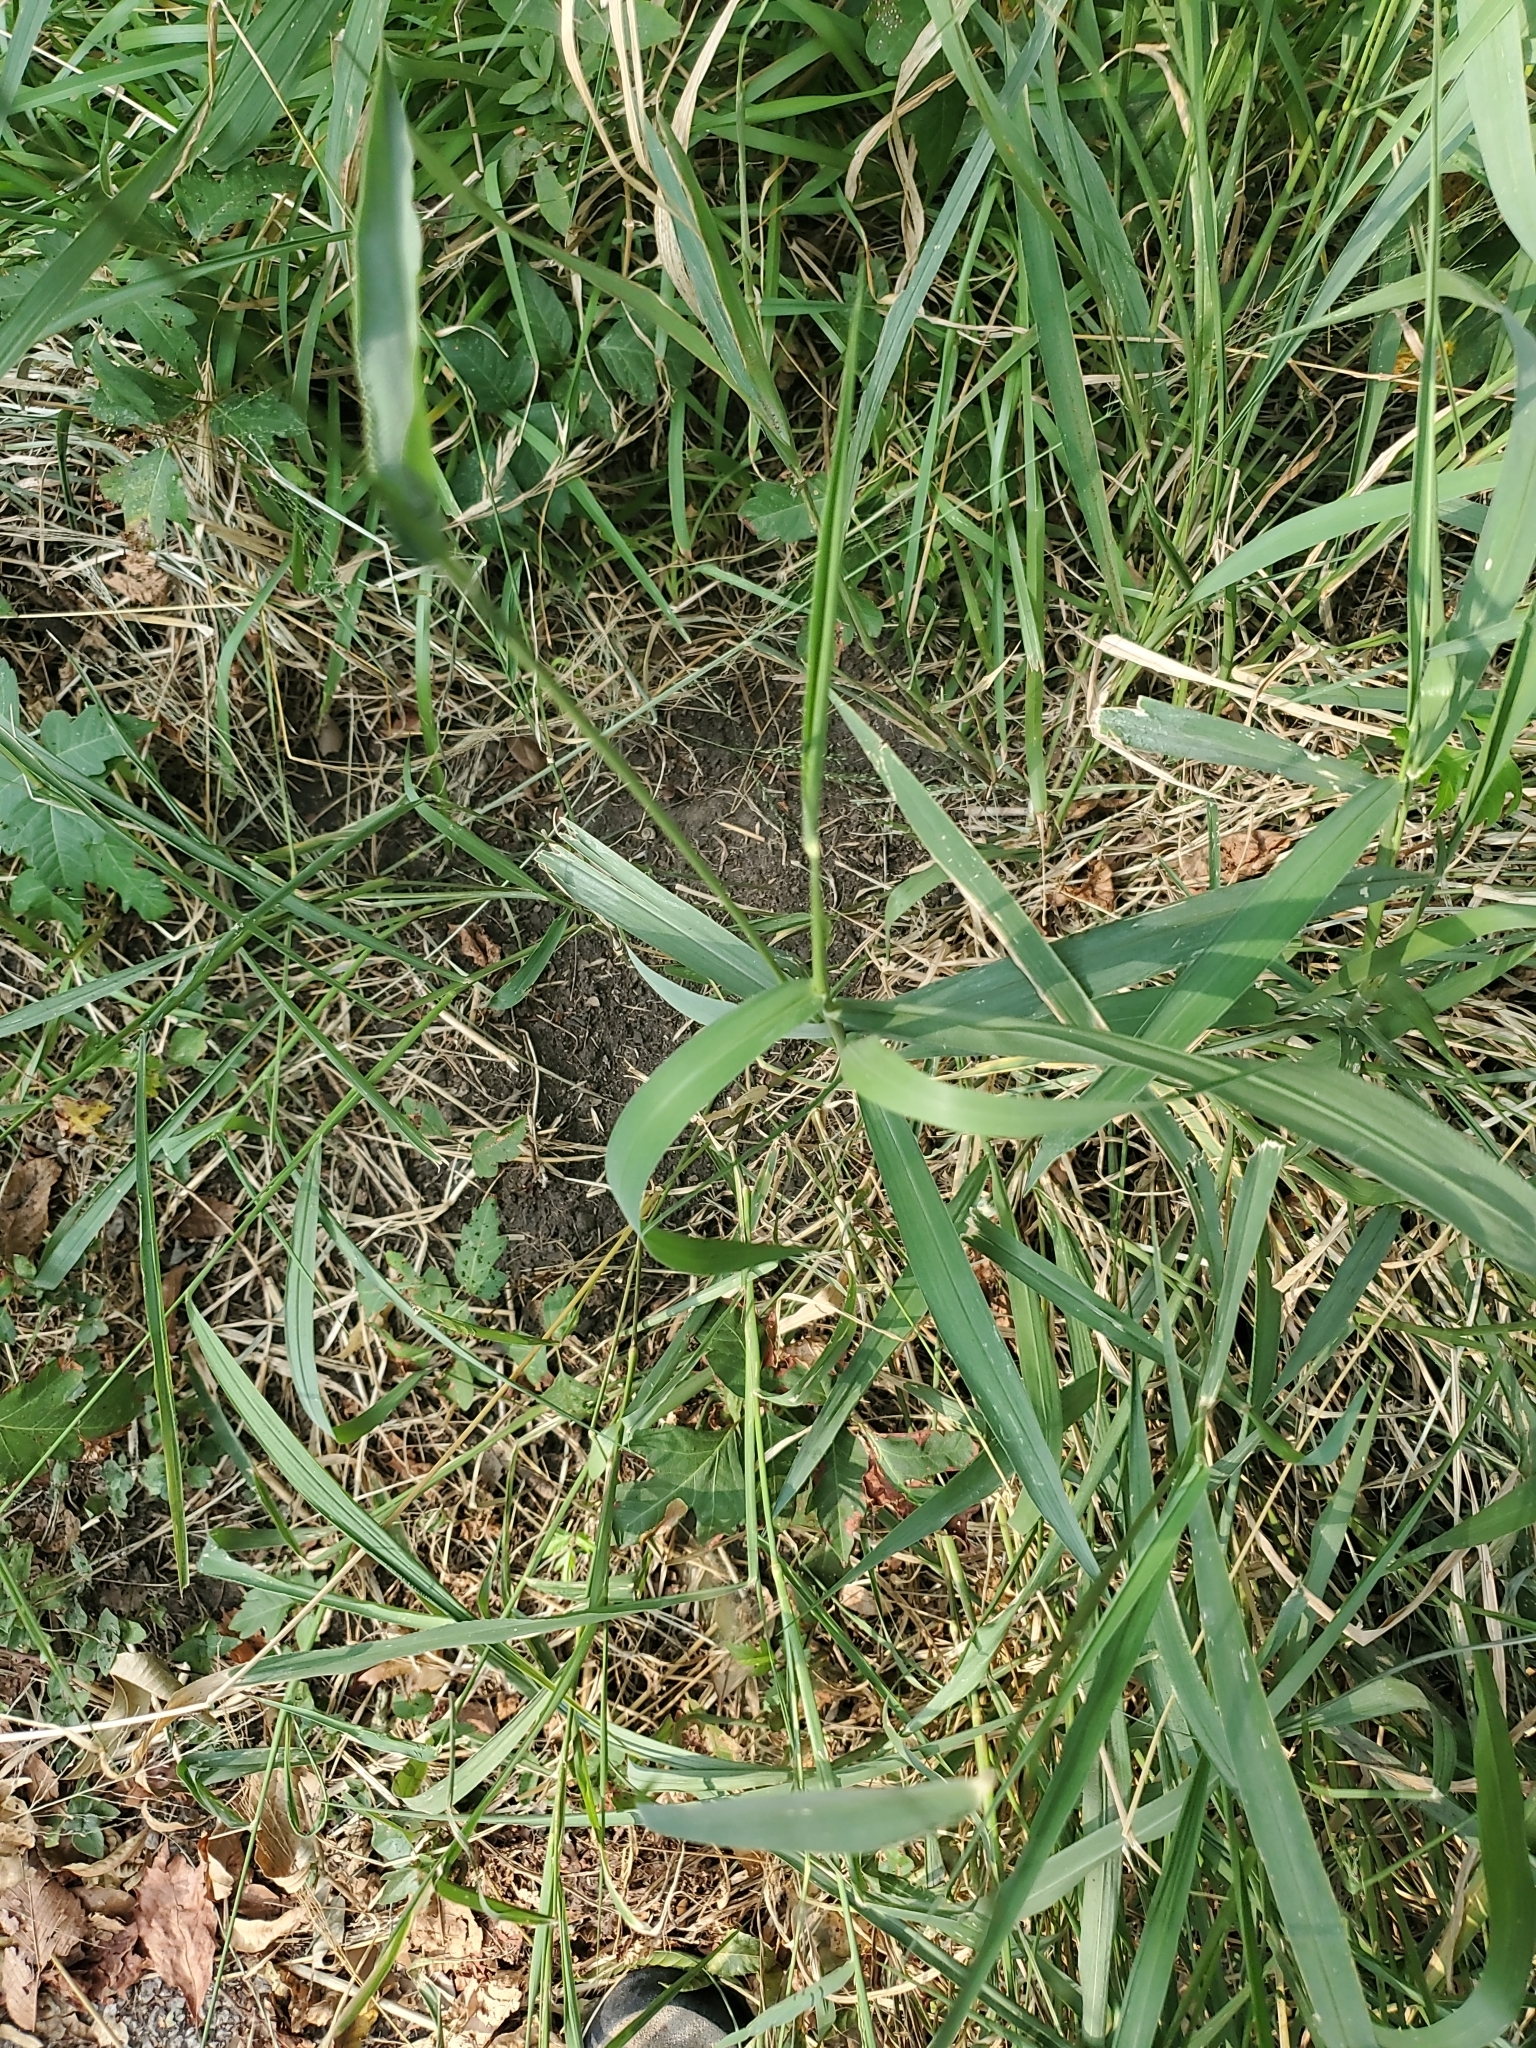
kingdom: Plantae
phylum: Tracheophyta
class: Liliopsida
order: Poales
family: Poaceae
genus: Megathyrsus
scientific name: Megathyrsus maximus
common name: Guineagrass
